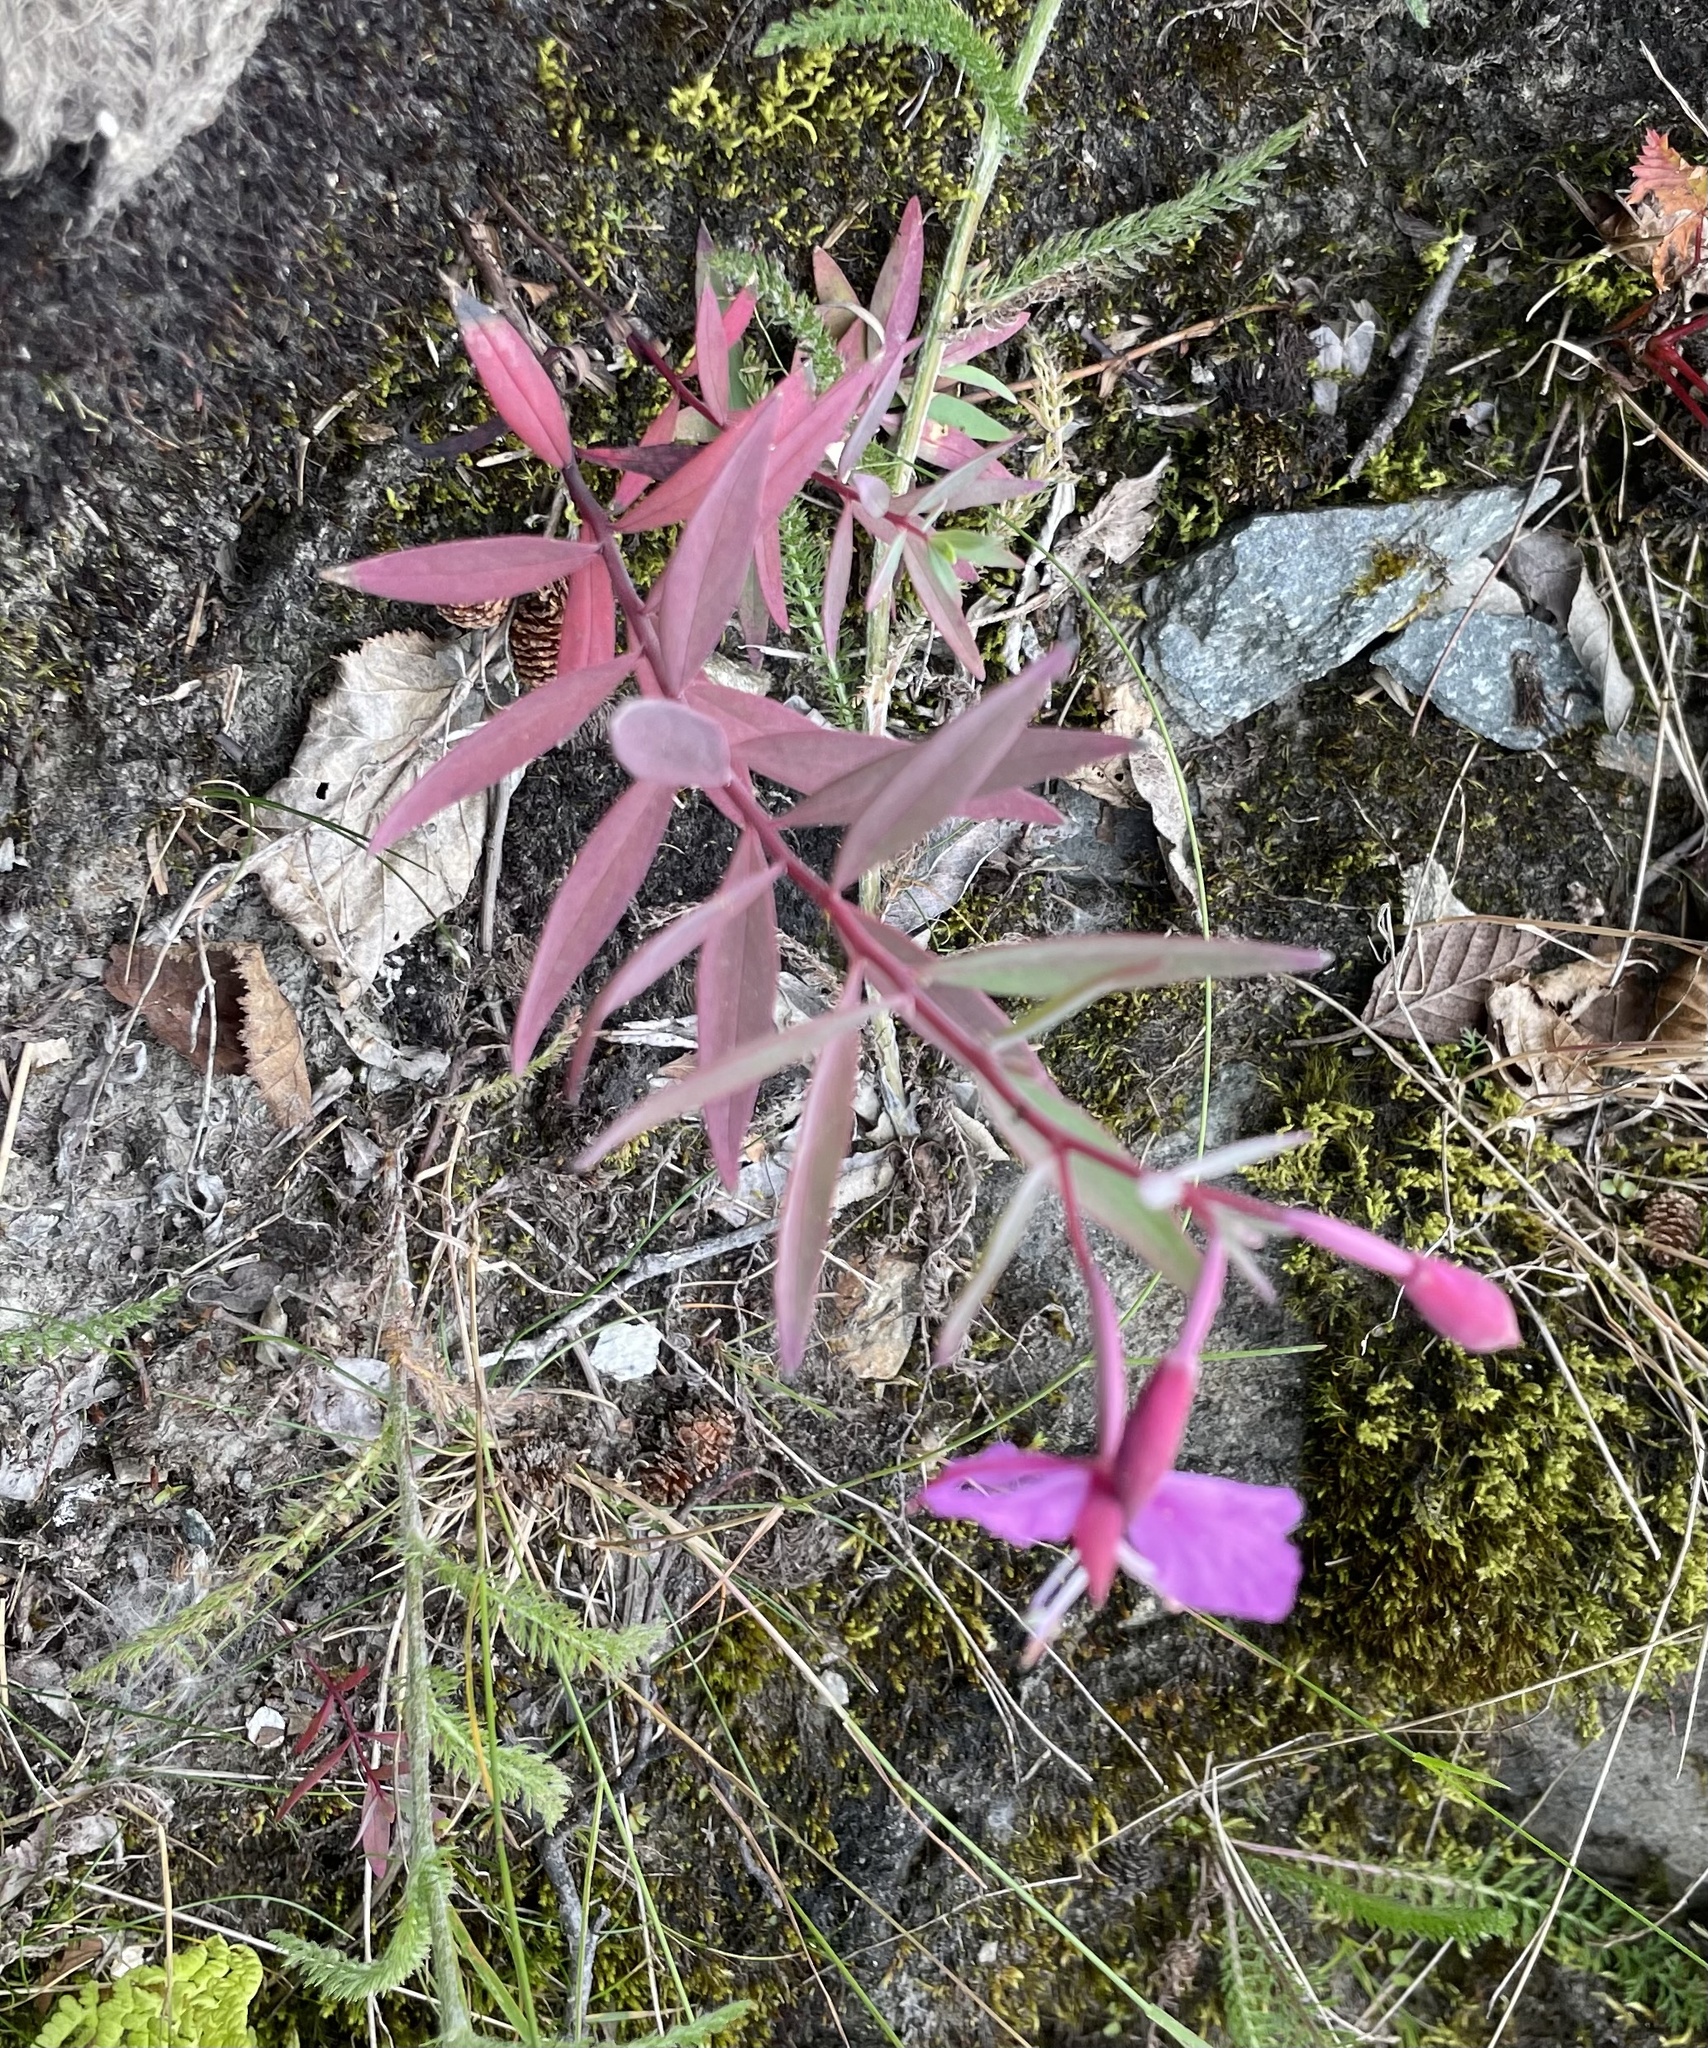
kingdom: Plantae
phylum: Tracheophyta
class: Magnoliopsida
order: Myrtales
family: Onagraceae
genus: Chamaenerion
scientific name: Chamaenerion latifolium
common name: Dwarf fireweed
